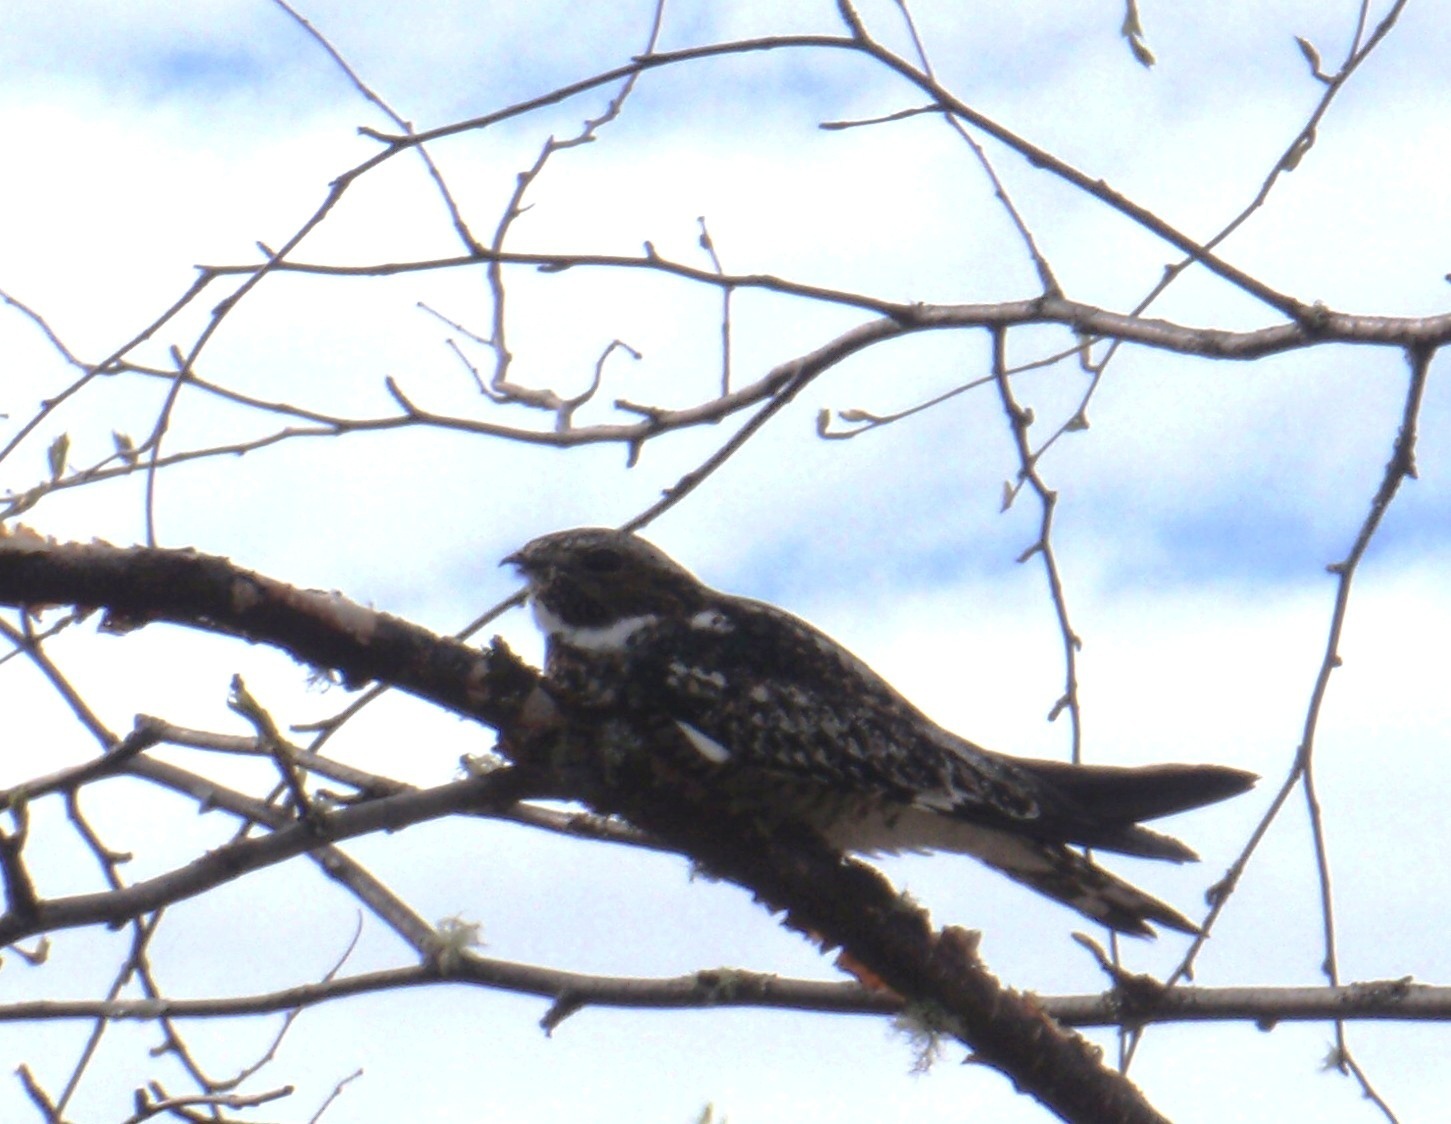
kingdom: Animalia
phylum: Chordata
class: Aves
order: Caprimulgiformes
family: Caprimulgidae
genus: Chordeiles
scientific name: Chordeiles minor
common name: Common nighthawk
